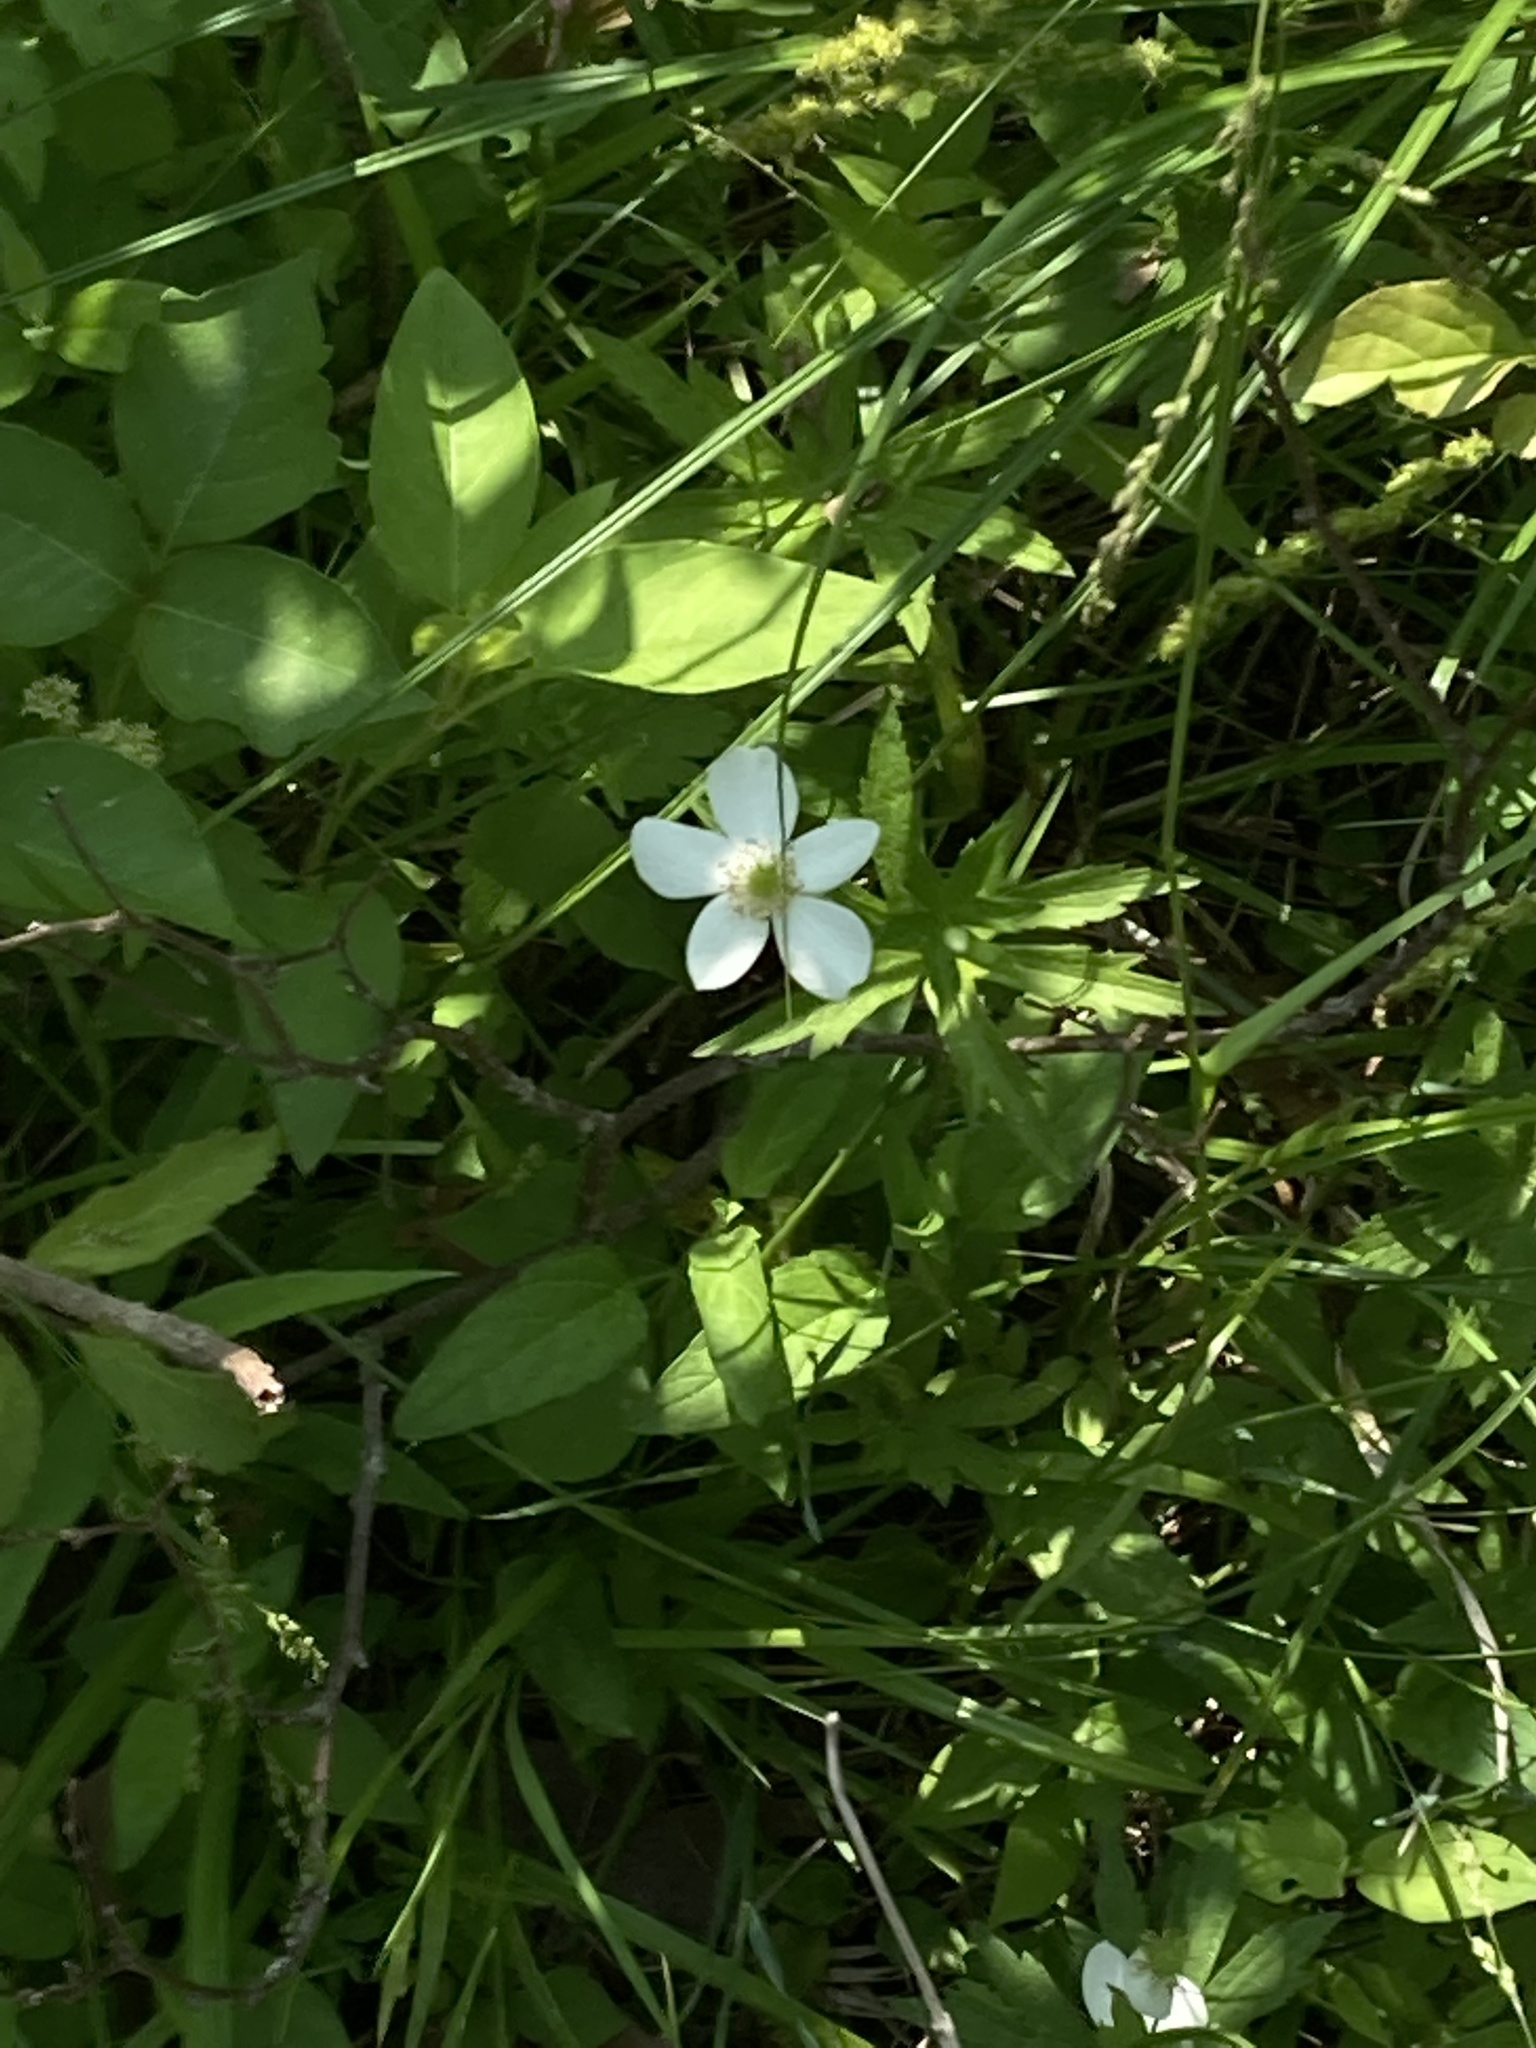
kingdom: Plantae
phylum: Tracheophyta
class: Magnoliopsida
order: Ranunculales
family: Ranunculaceae
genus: Anemonastrum
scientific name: Anemonastrum canadense
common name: Canada anemone
